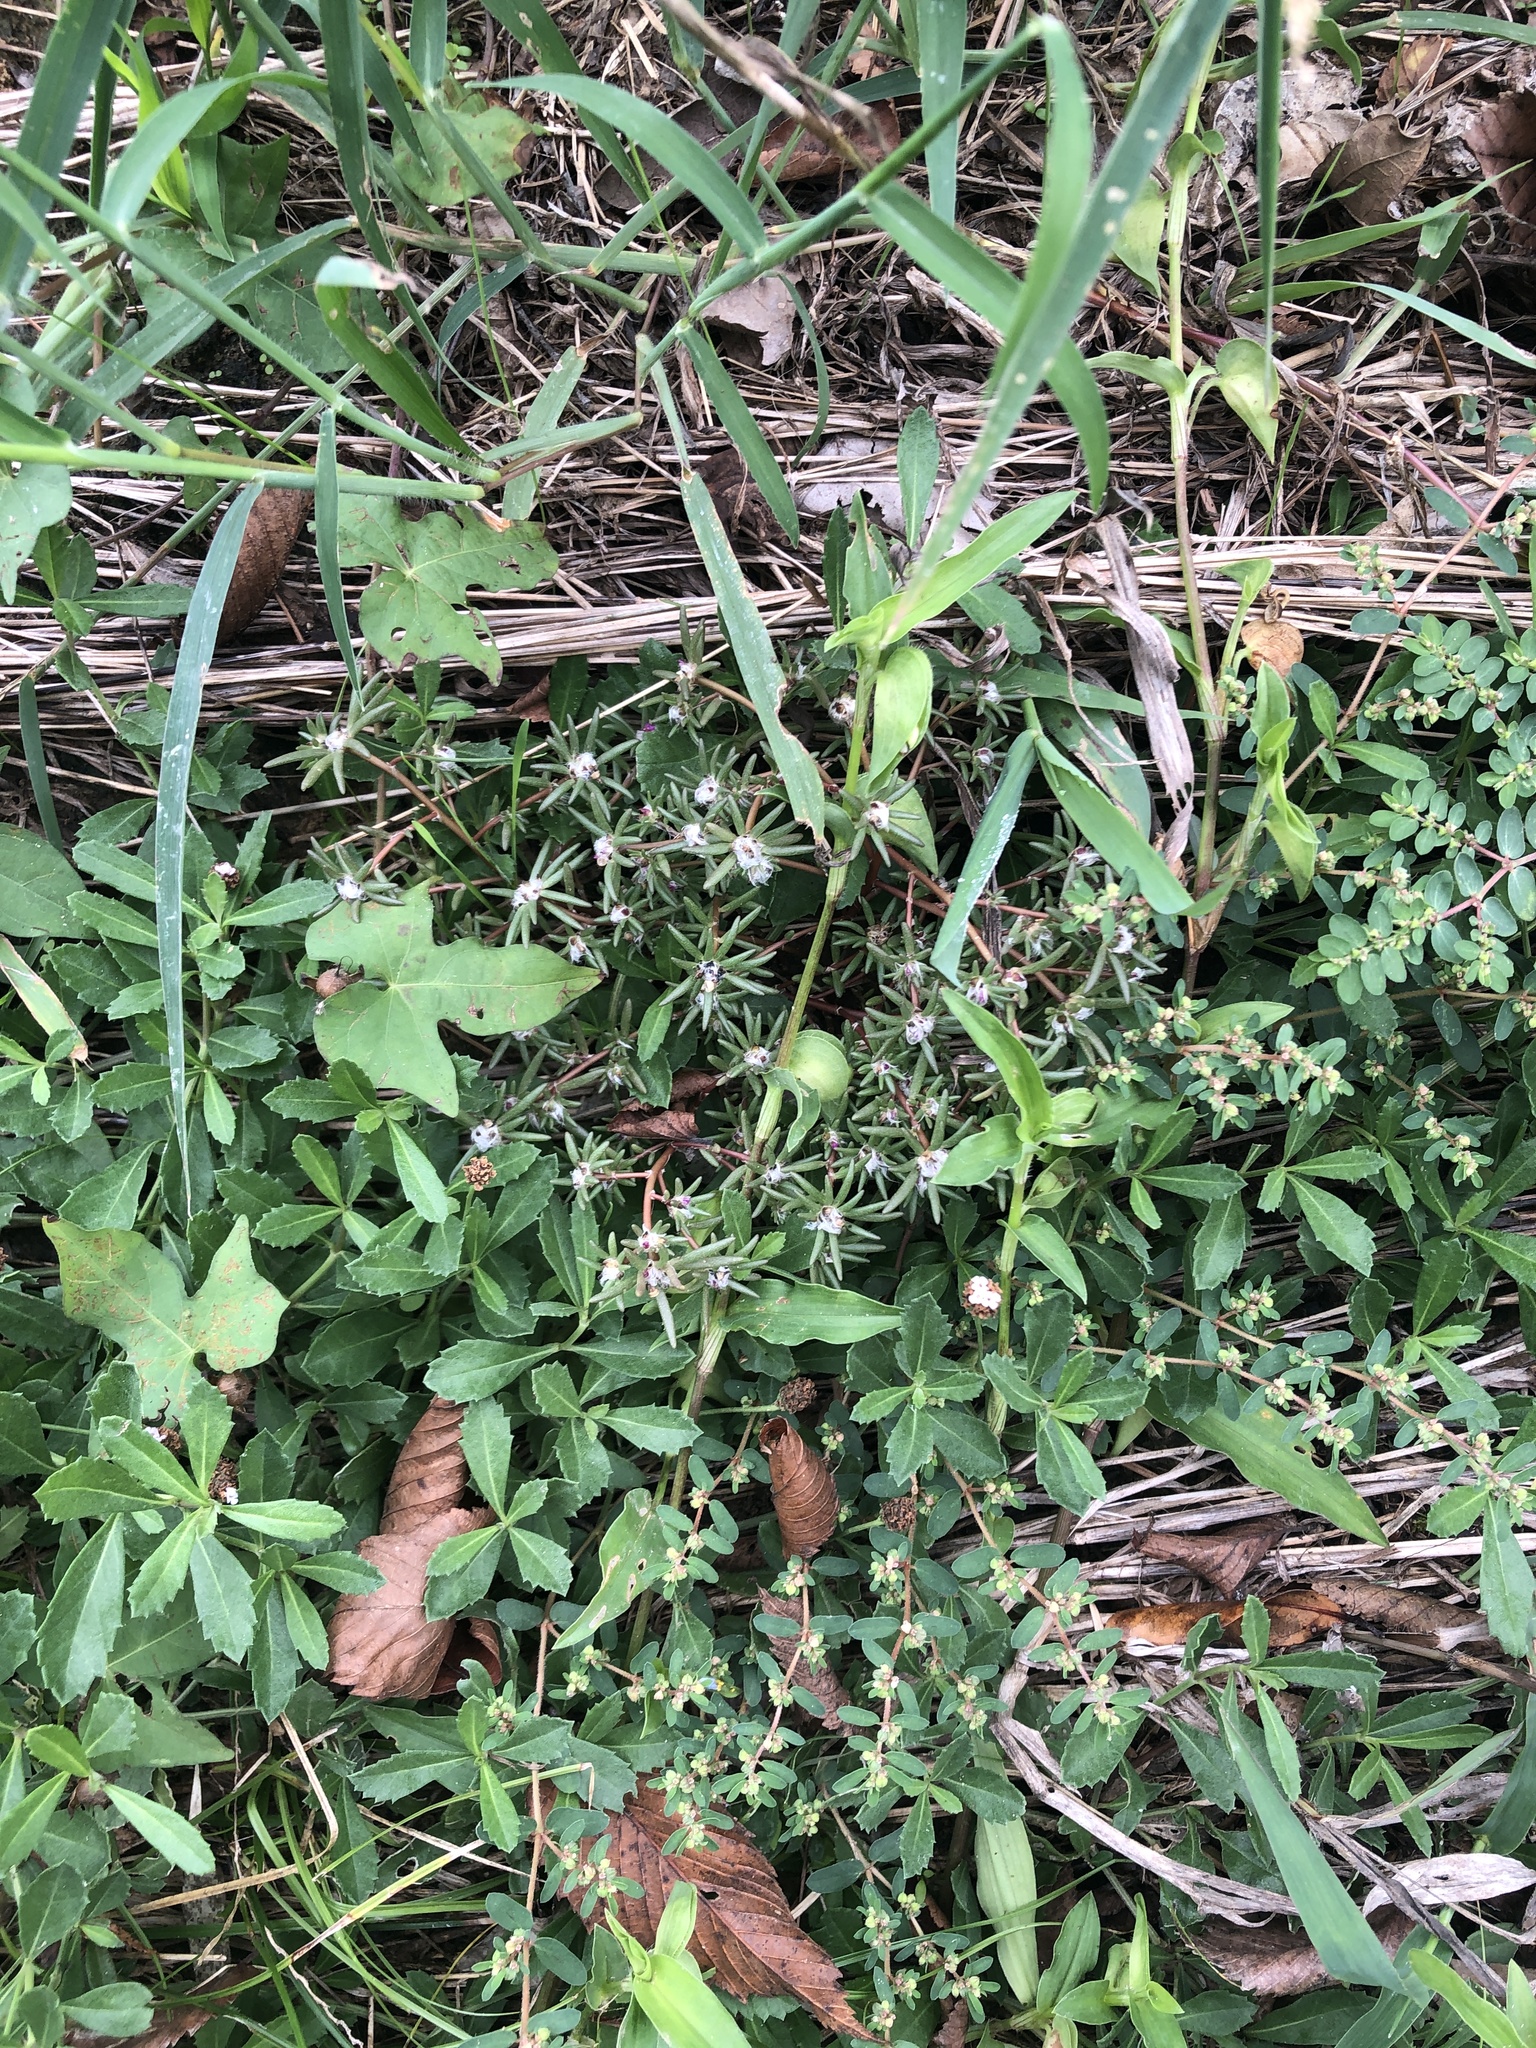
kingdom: Plantae
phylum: Tracheophyta
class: Magnoliopsida
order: Caryophyllales
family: Portulacaceae
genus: Portulaca
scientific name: Portulaca pilosa
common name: Kiss me quick
